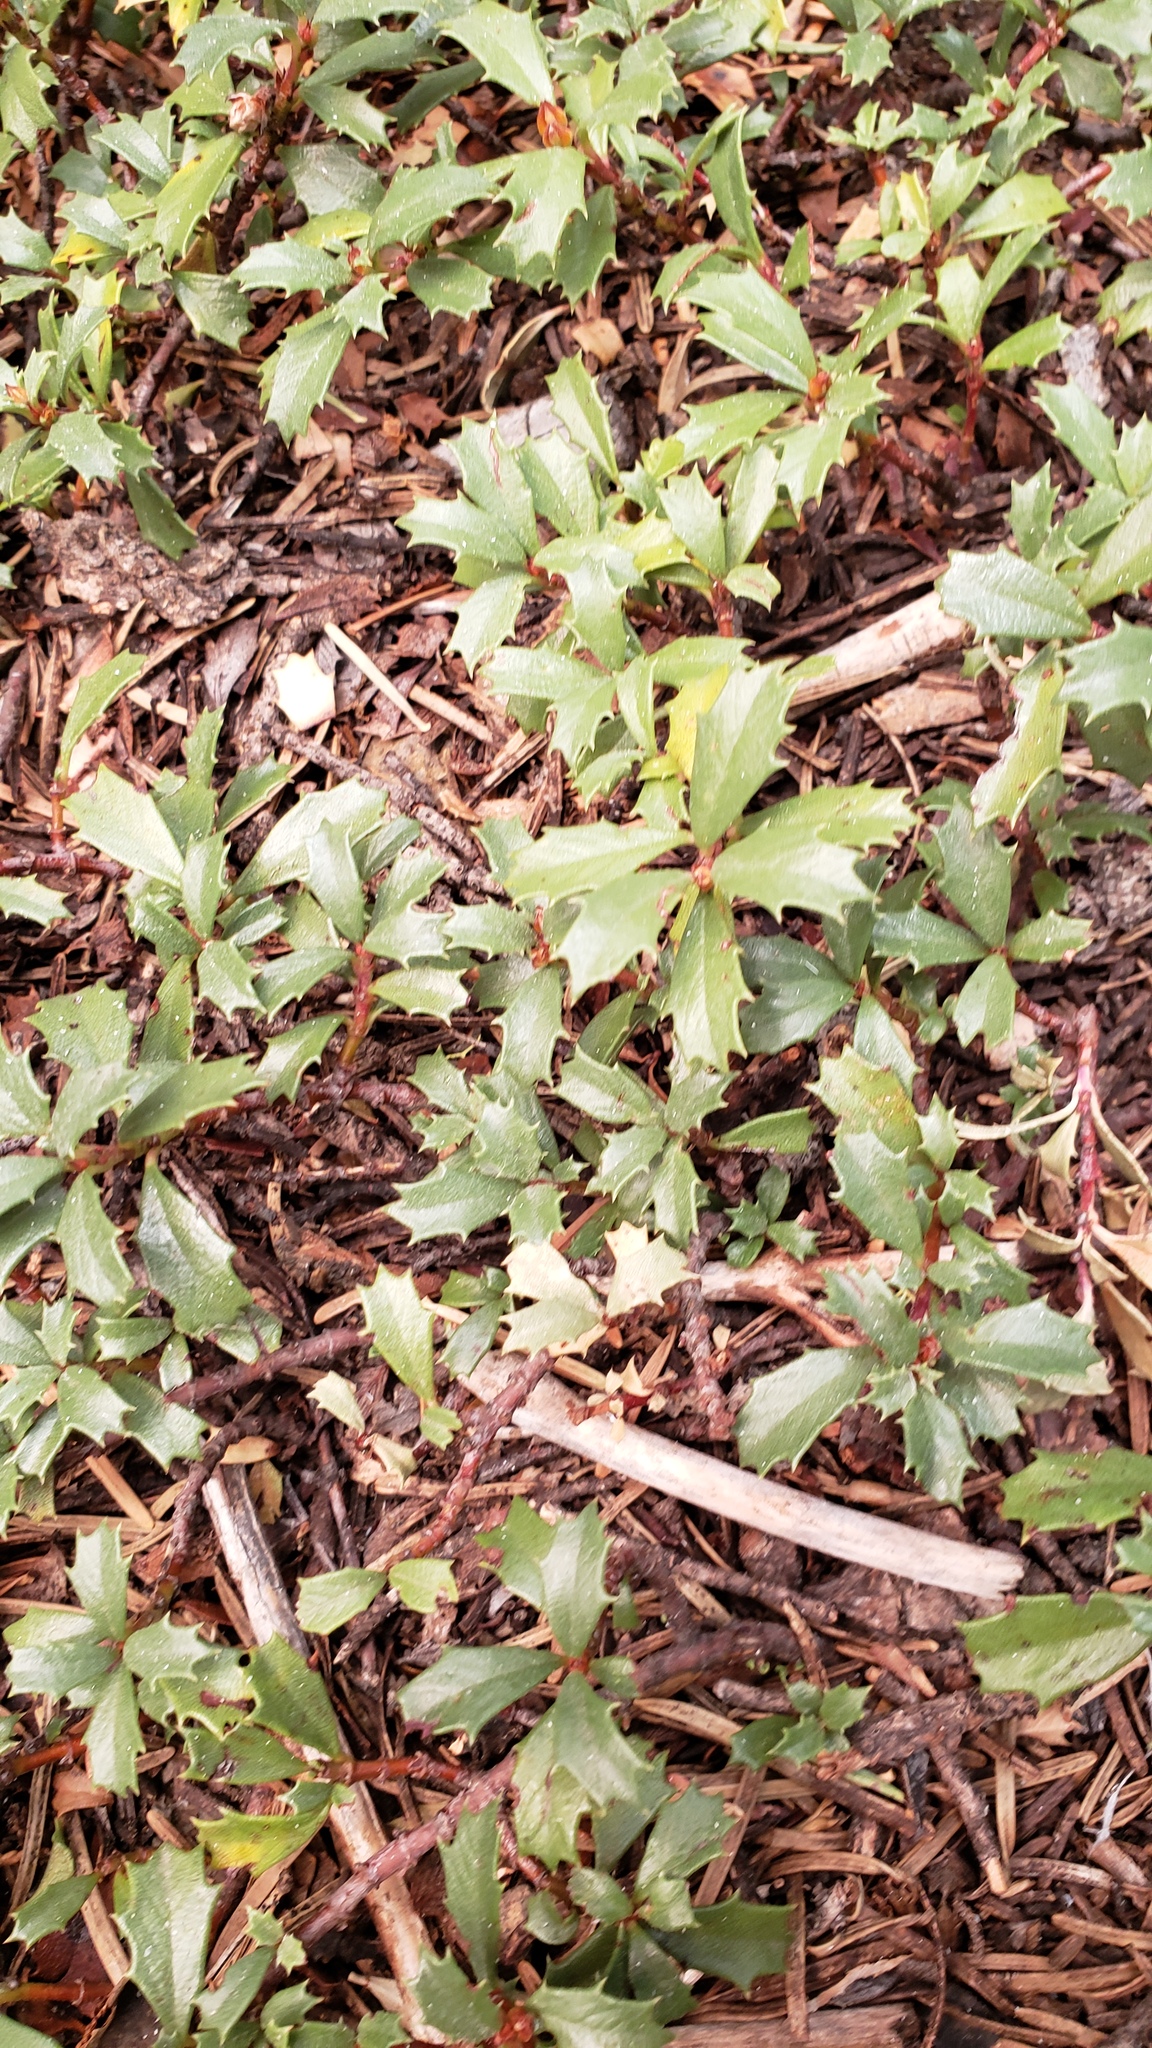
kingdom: Plantae
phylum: Tracheophyta
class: Magnoliopsida
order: Rosales
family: Rhamnaceae
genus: Ceanothus
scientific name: Ceanothus prostratus
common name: Mahala-mat
